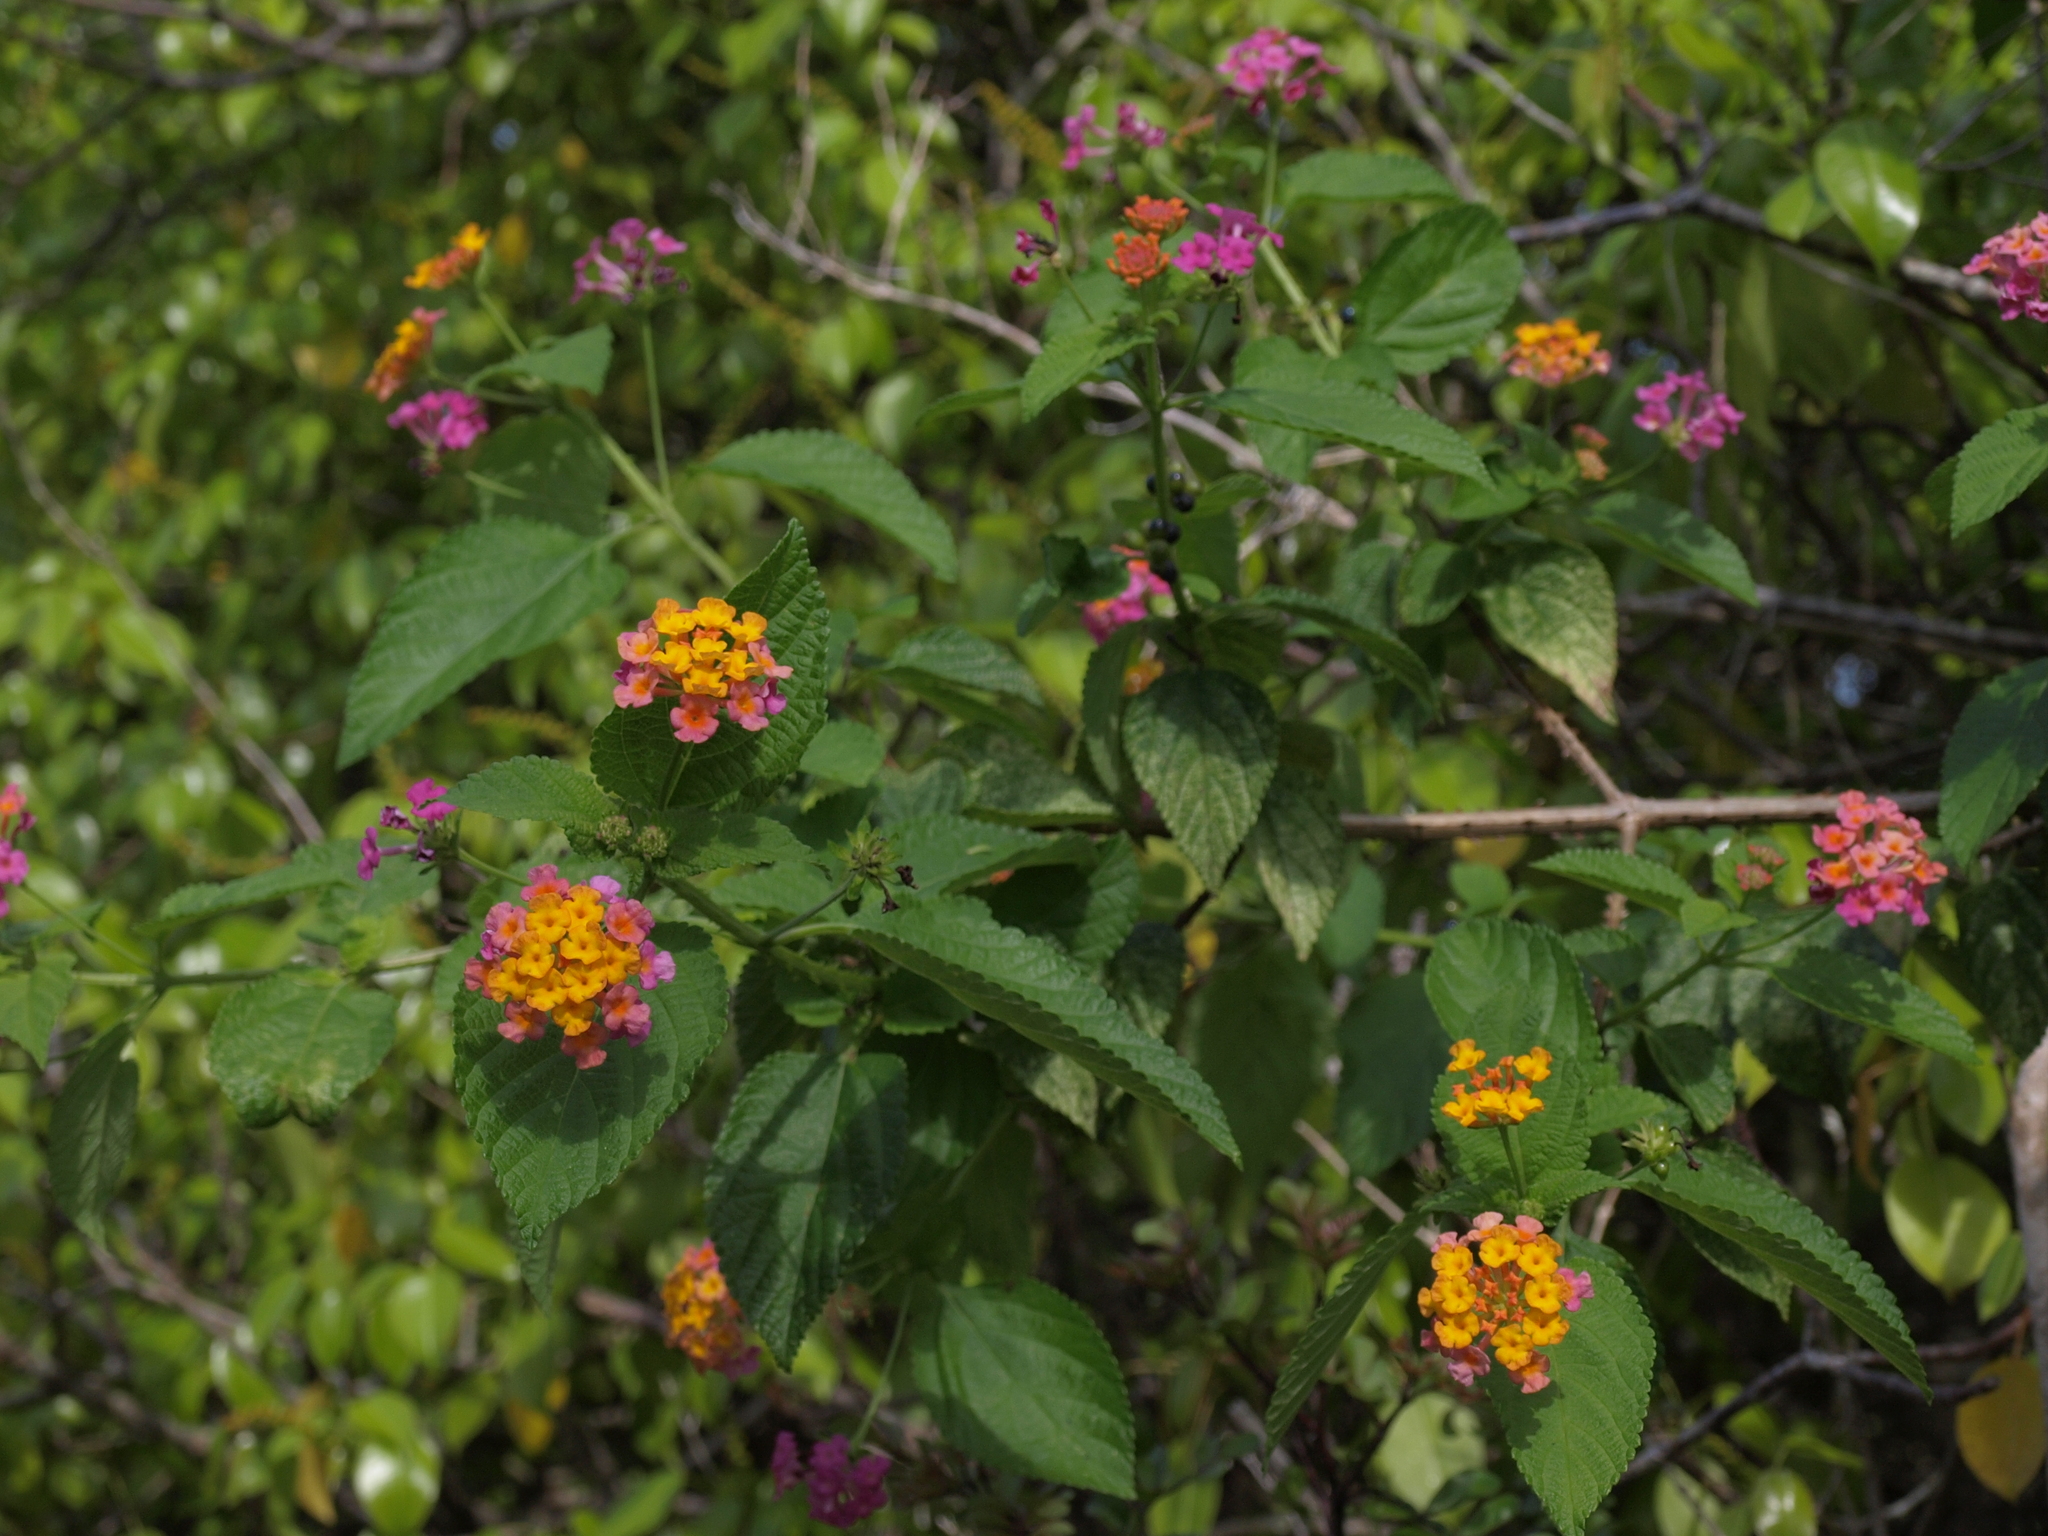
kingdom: Plantae
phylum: Tracheophyta
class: Magnoliopsida
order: Lamiales
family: Verbenaceae
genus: Lantana
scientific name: Lantana camara
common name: Lantana
